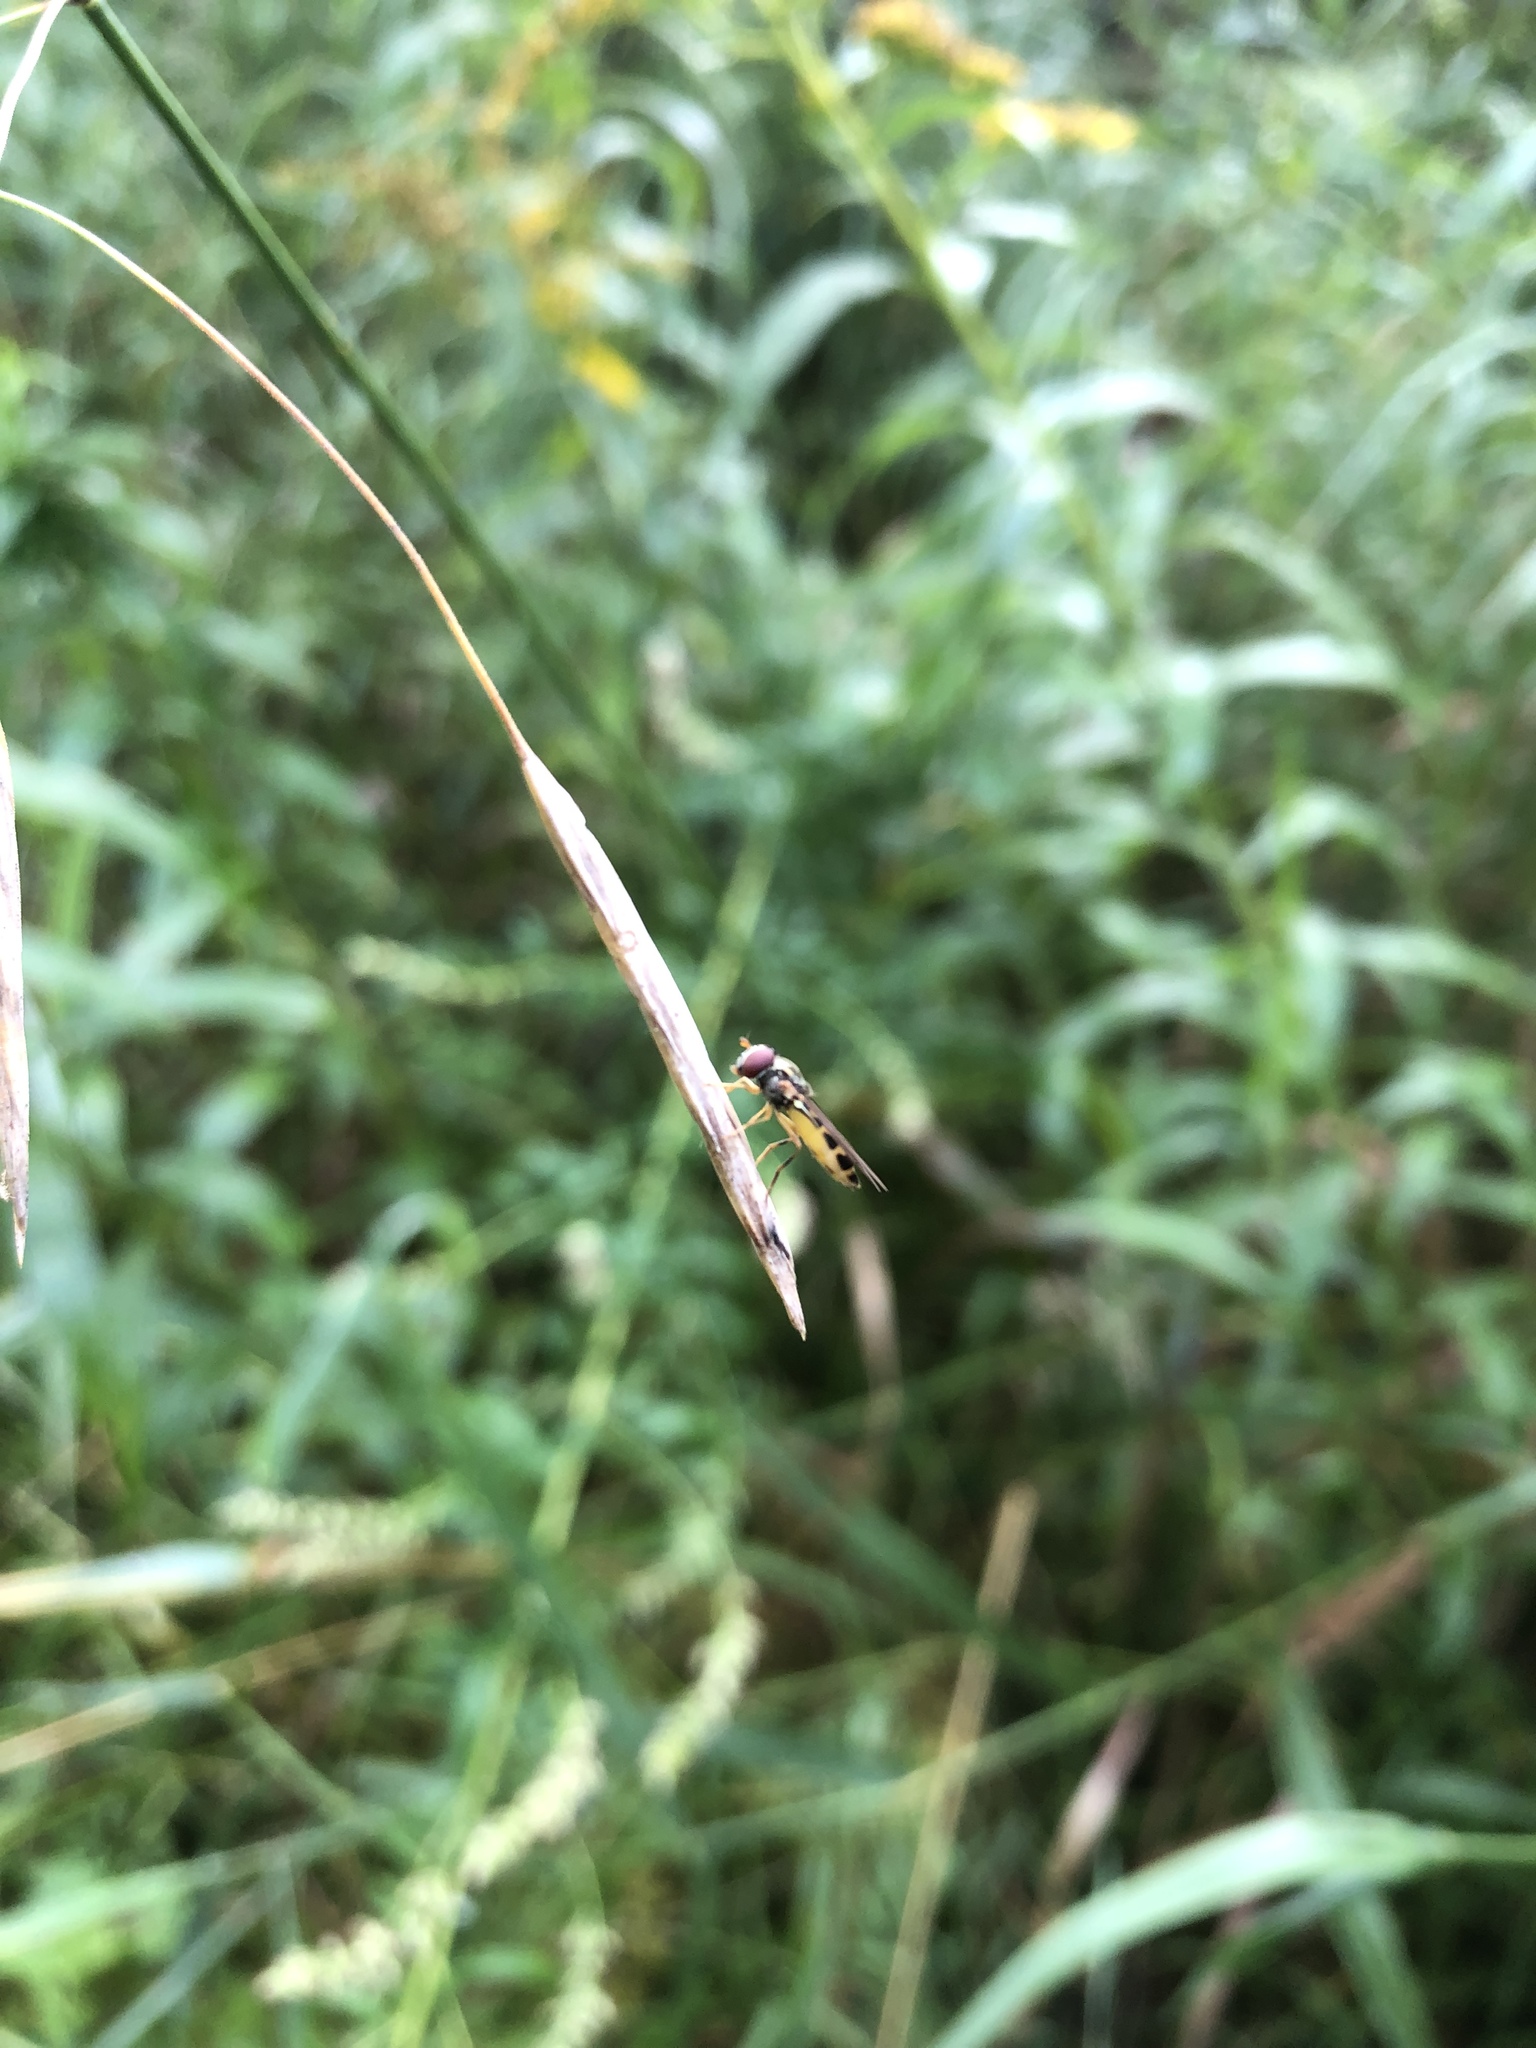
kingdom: Animalia
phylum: Arthropoda
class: Insecta
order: Diptera
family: Syrphidae
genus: Melanostoma
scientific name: Melanostoma mellina
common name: Hover fly
